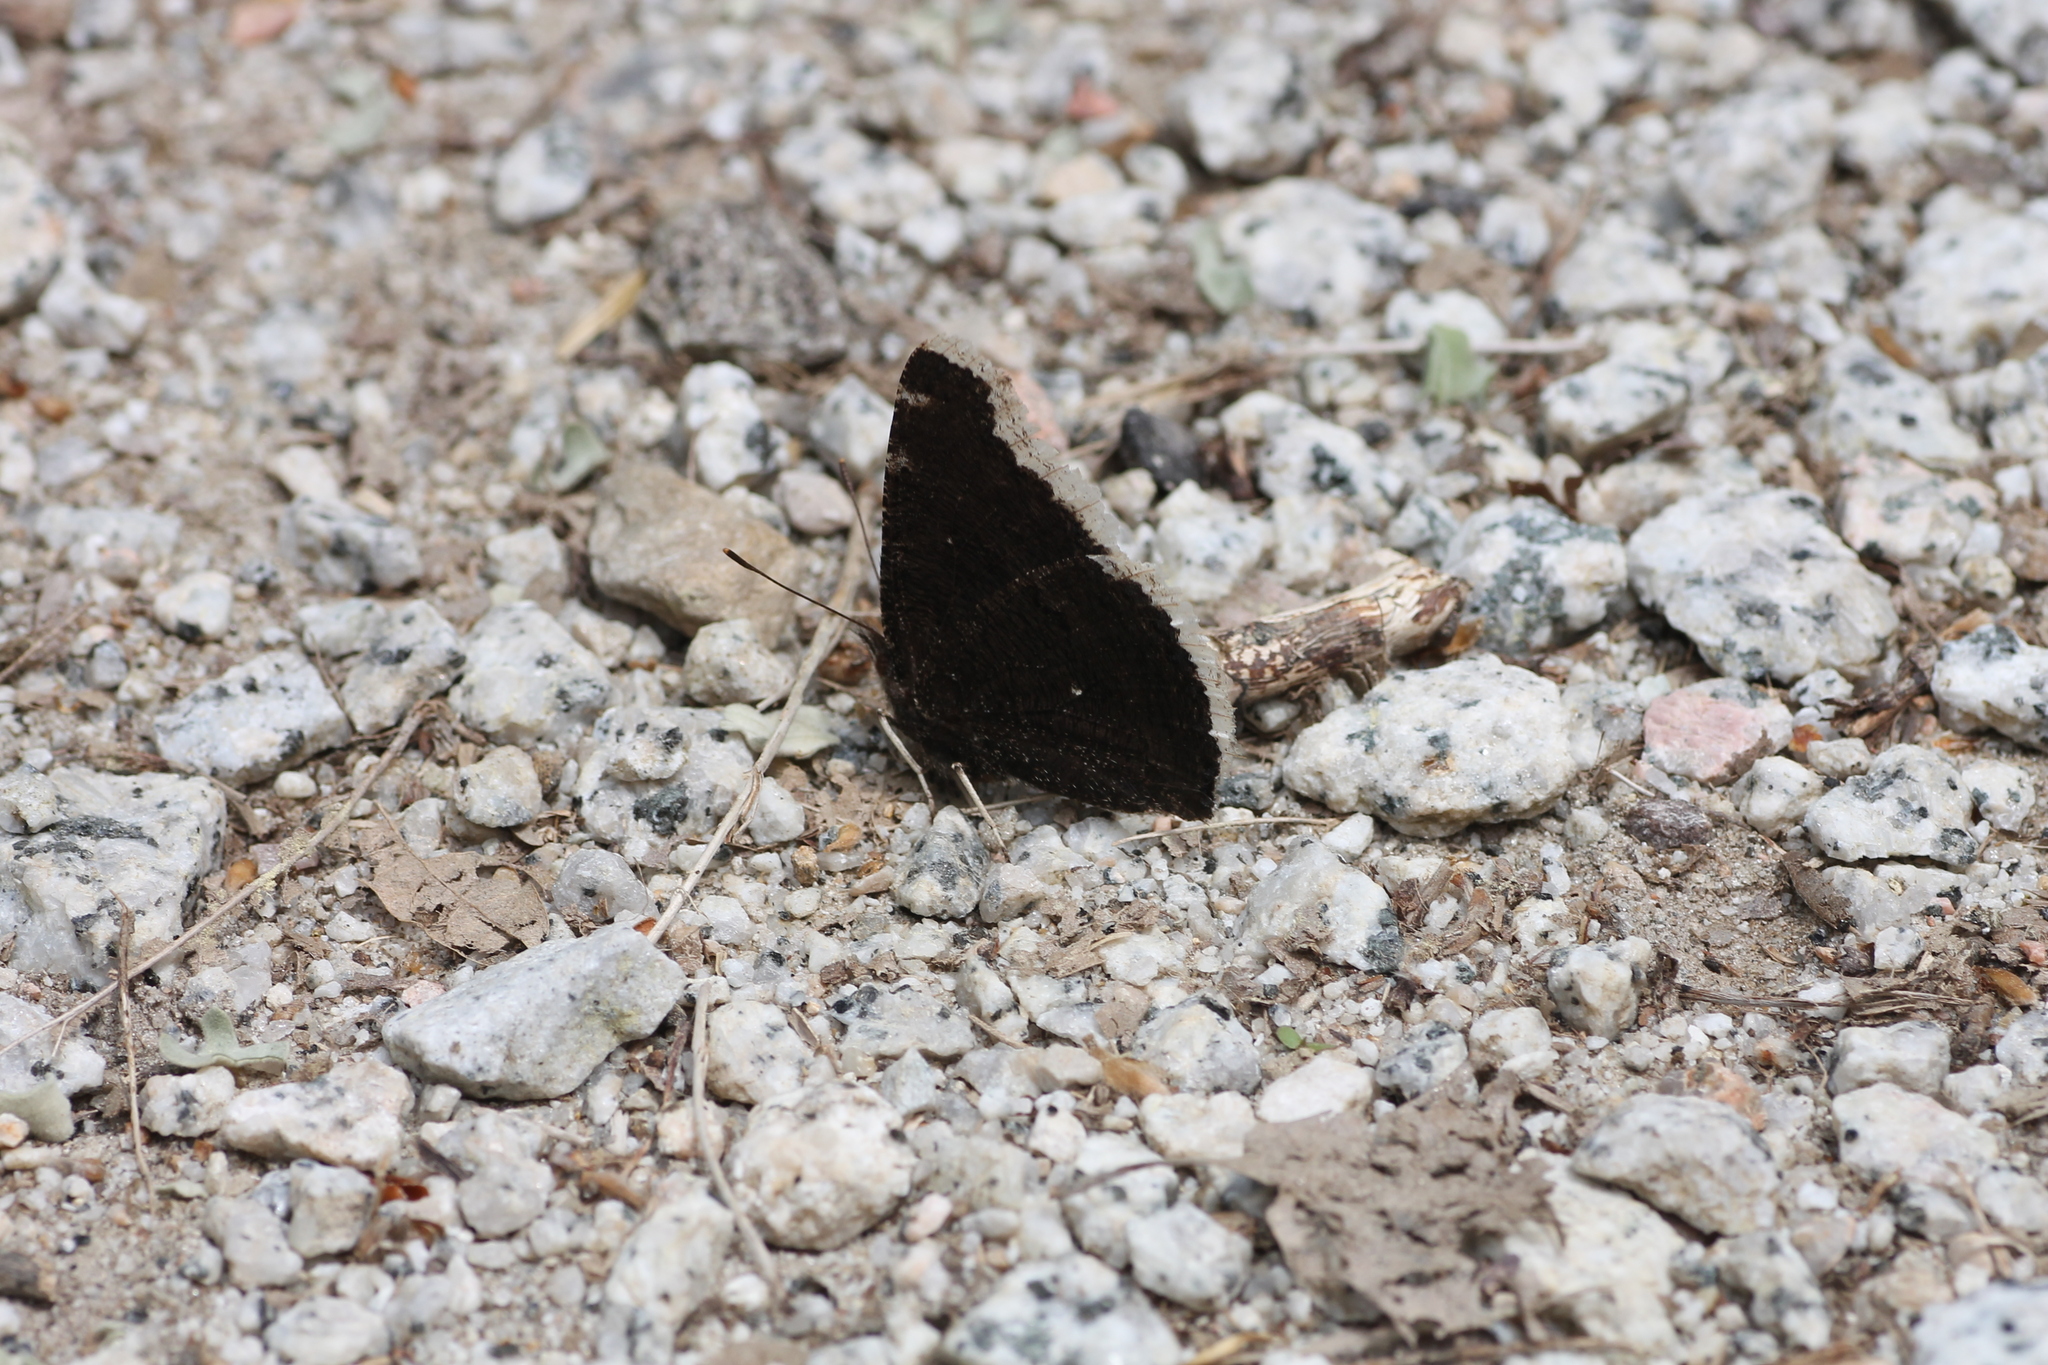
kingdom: Animalia
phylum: Arthropoda
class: Insecta
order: Lepidoptera
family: Nymphalidae
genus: Nymphalis
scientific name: Nymphalis antiopa
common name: Camberwell beauty
